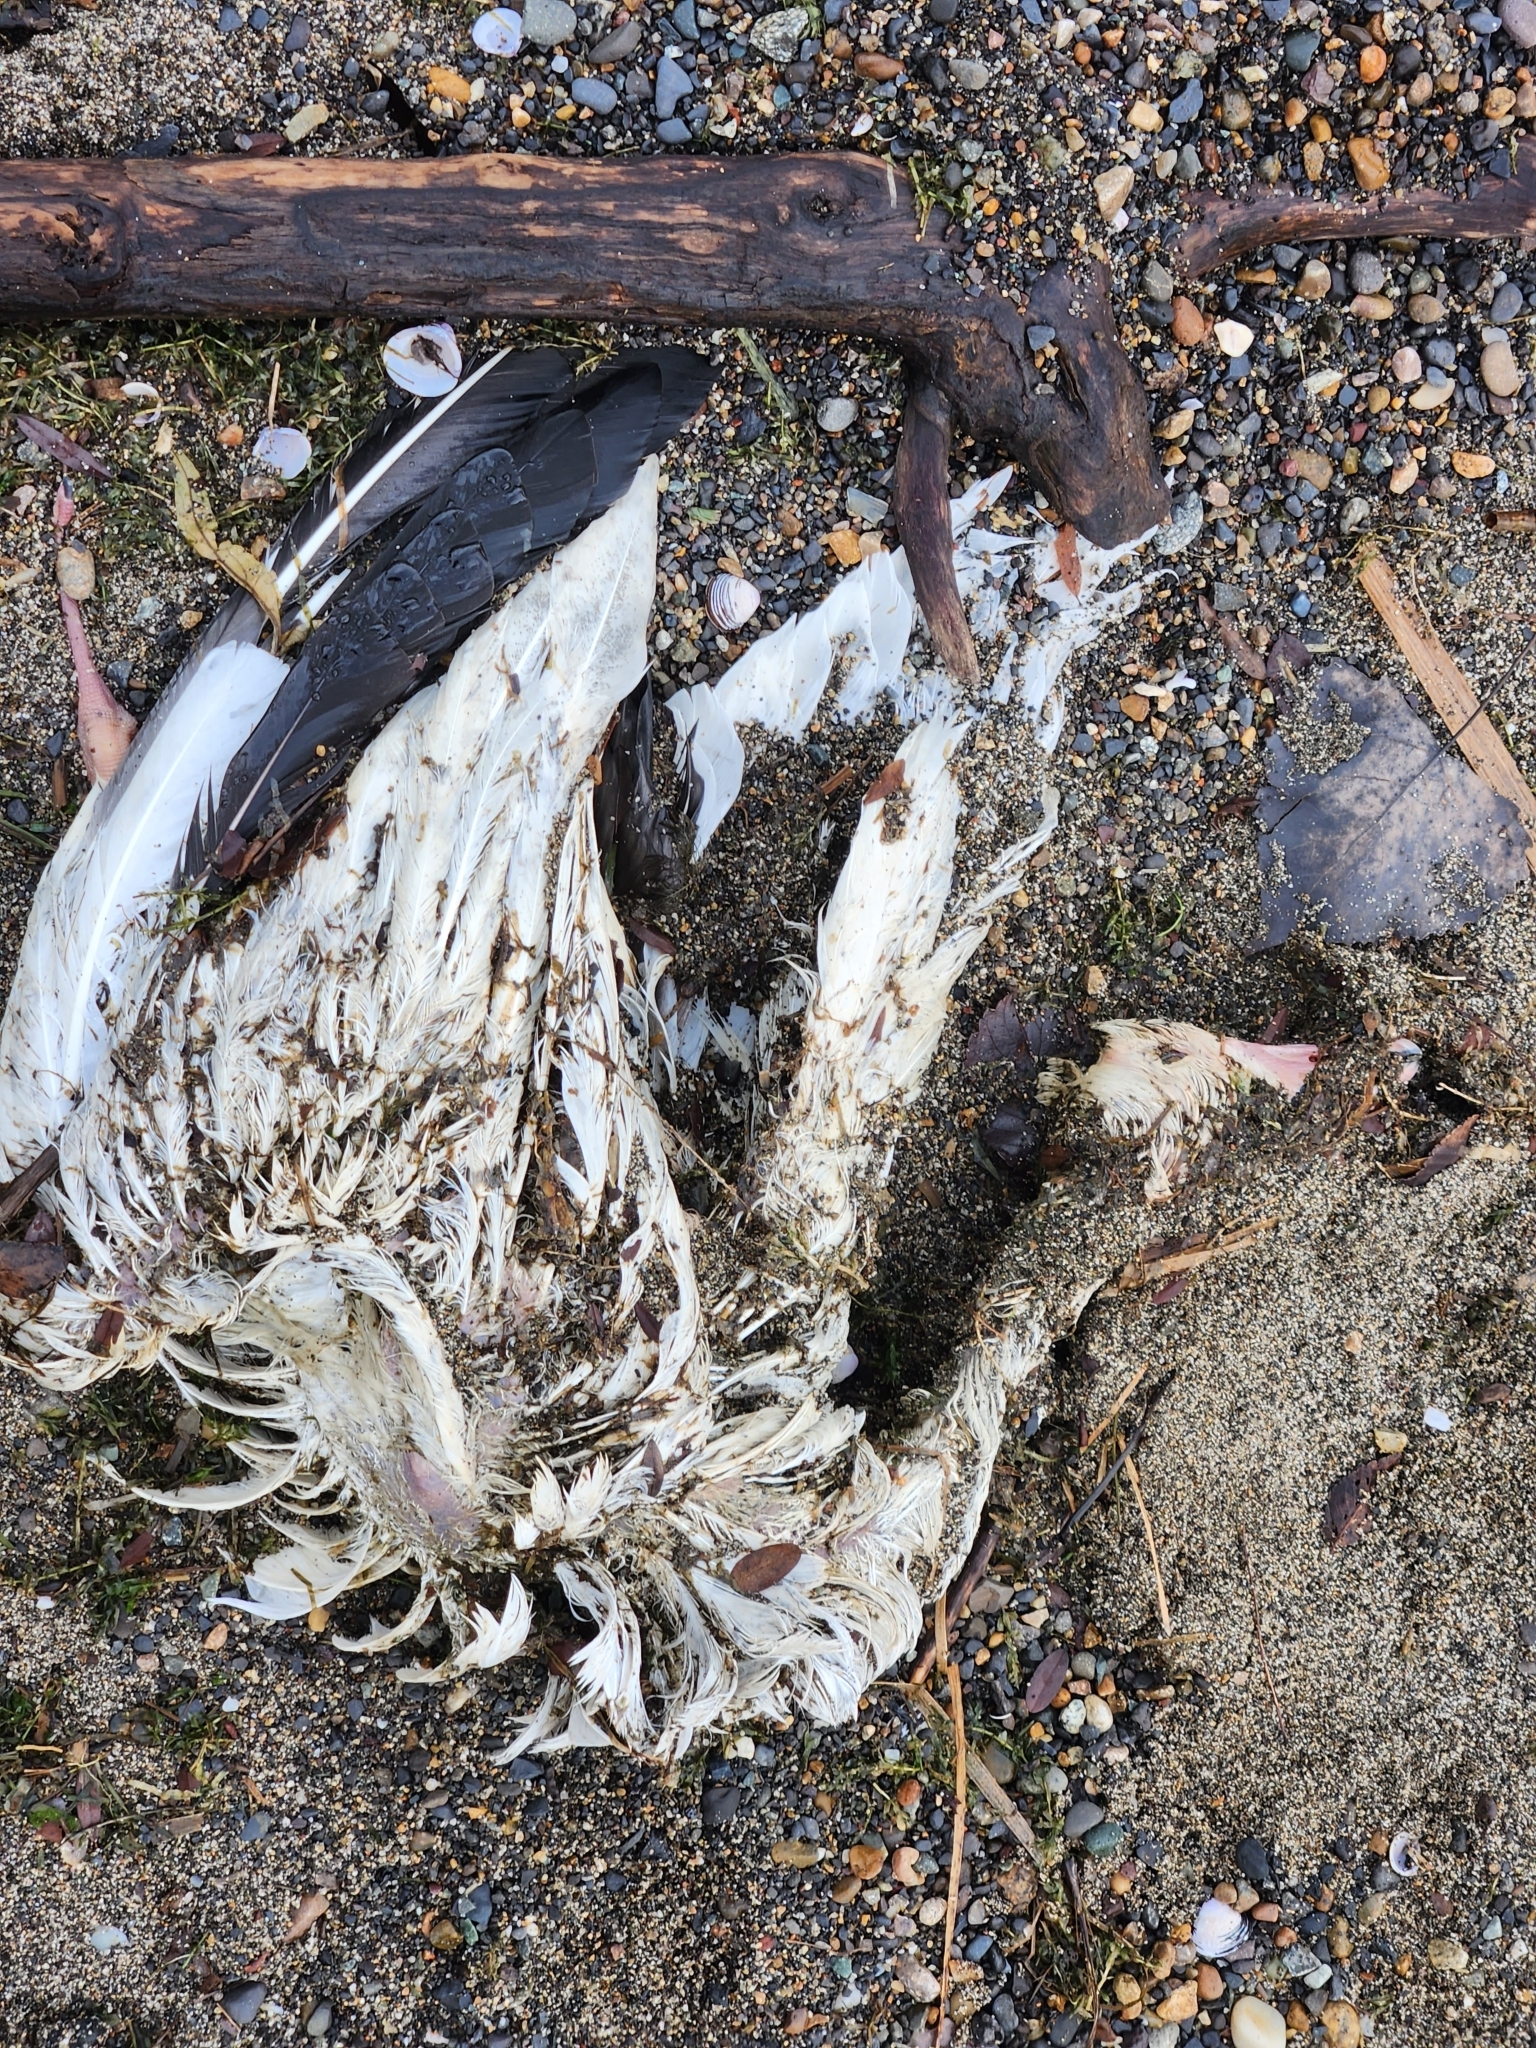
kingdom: Animalia
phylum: Chordata
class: Aves
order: Anseriformes
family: Anatidae
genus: Anser
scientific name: Anser caerulescens
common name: Snow goose
